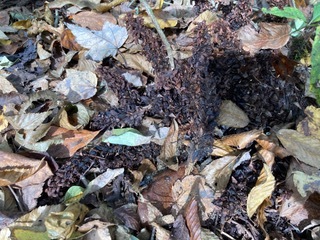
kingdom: Plantae
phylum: Tracheophyta
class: Magnoliopsida
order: Lamiales
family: Orobanchaceae
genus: Conopholis
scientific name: Conopholis americana
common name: American cancer-root
